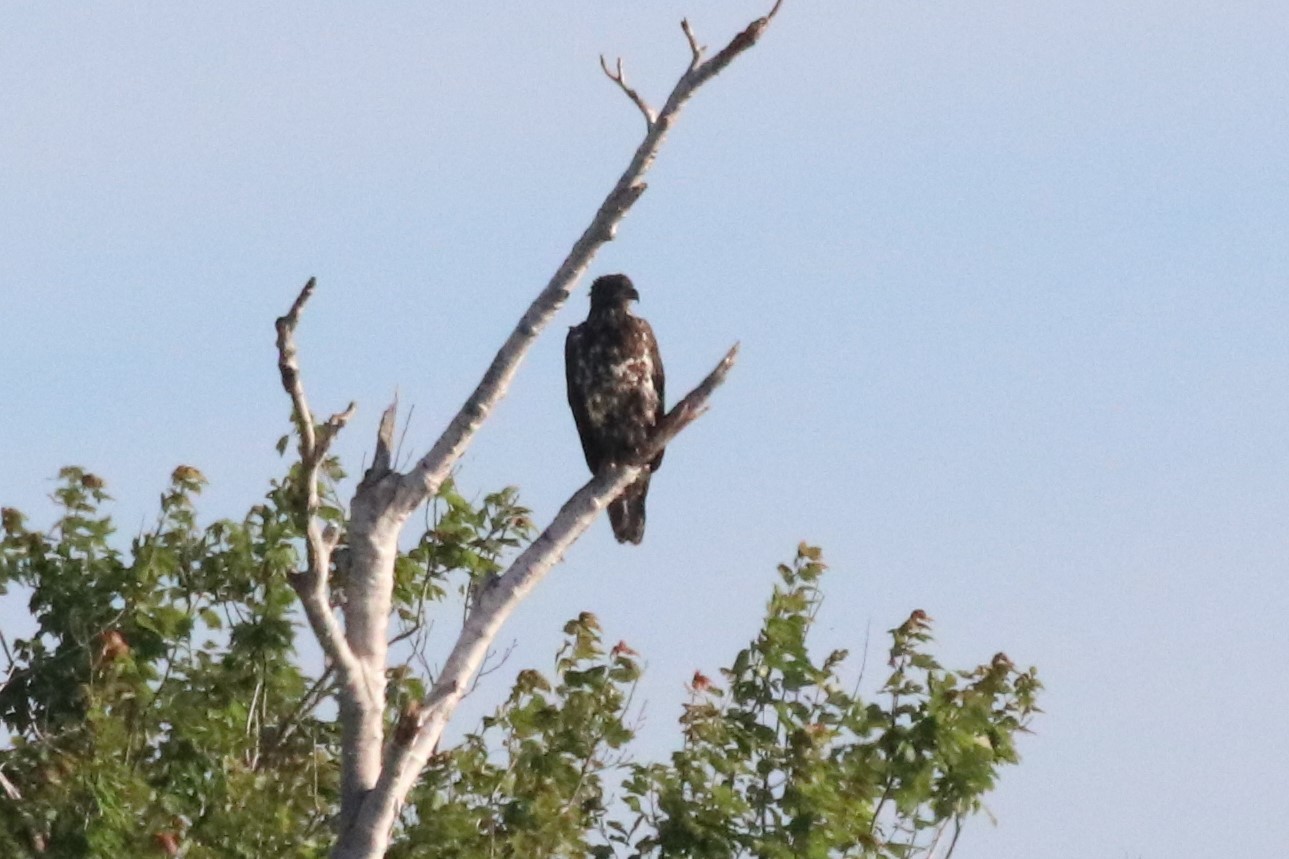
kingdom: Animalia
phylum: Chordata
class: Aves
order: Accipitriformes
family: Accipitridae
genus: Haliaeetus
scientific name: Haliaeetus leucocephalus
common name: Bald eagle
